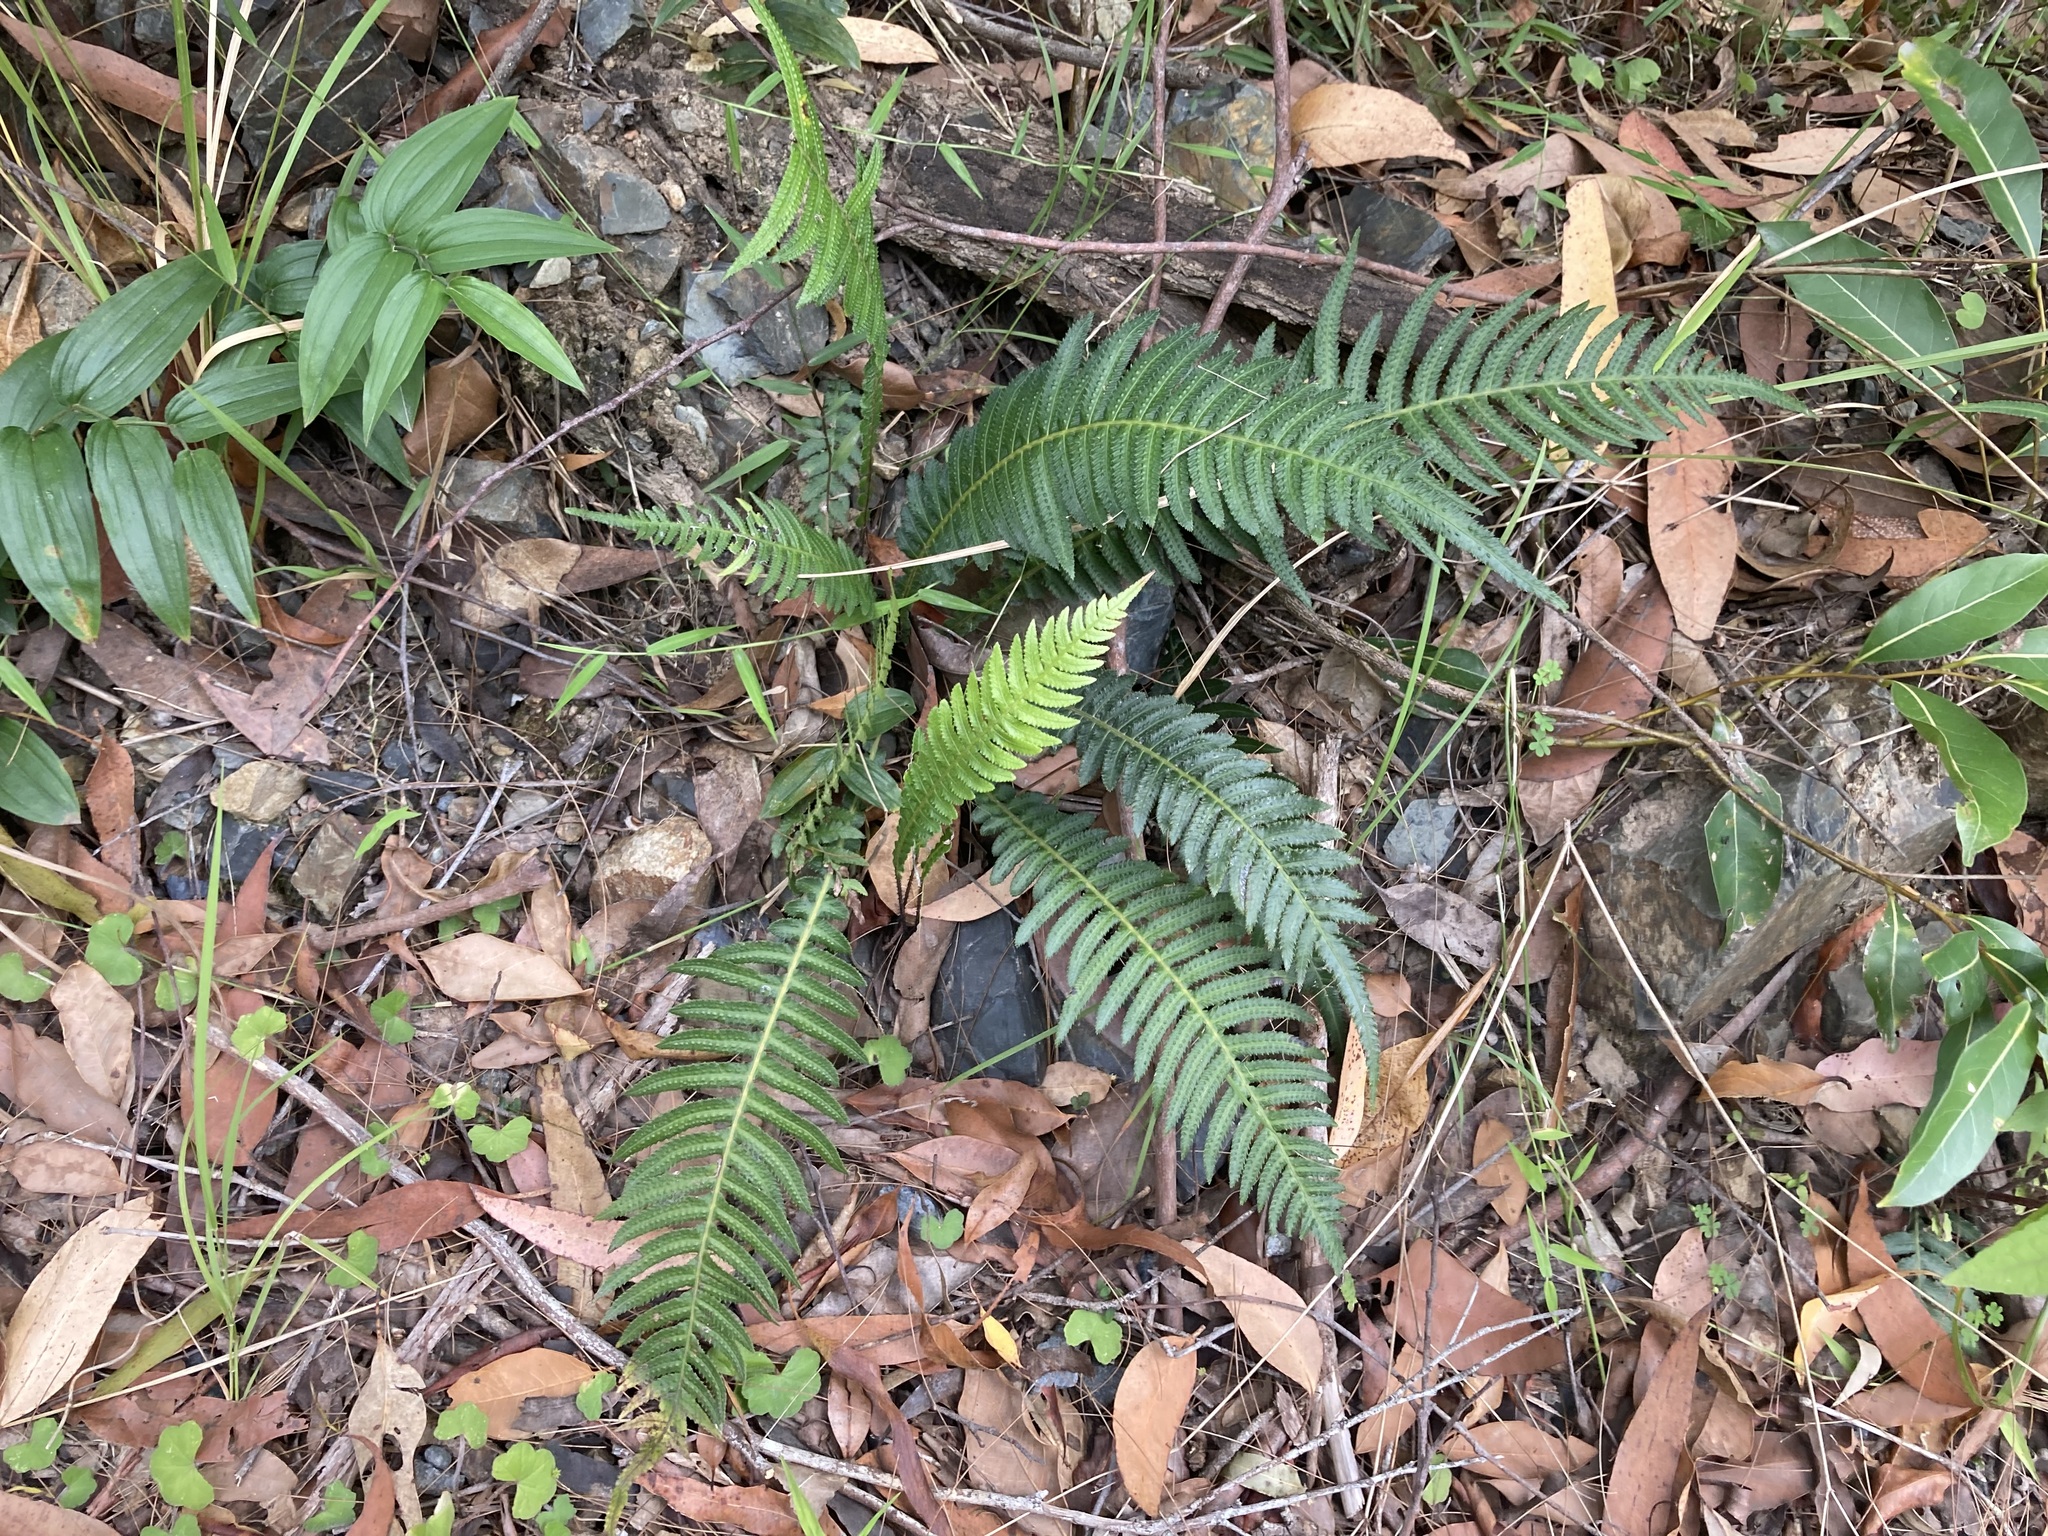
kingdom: Plantae
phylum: Tracheophyta
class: Polypodiopsida
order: Polypodiales
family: Blechnaceae
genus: Doodia
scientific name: Doodia aspera
